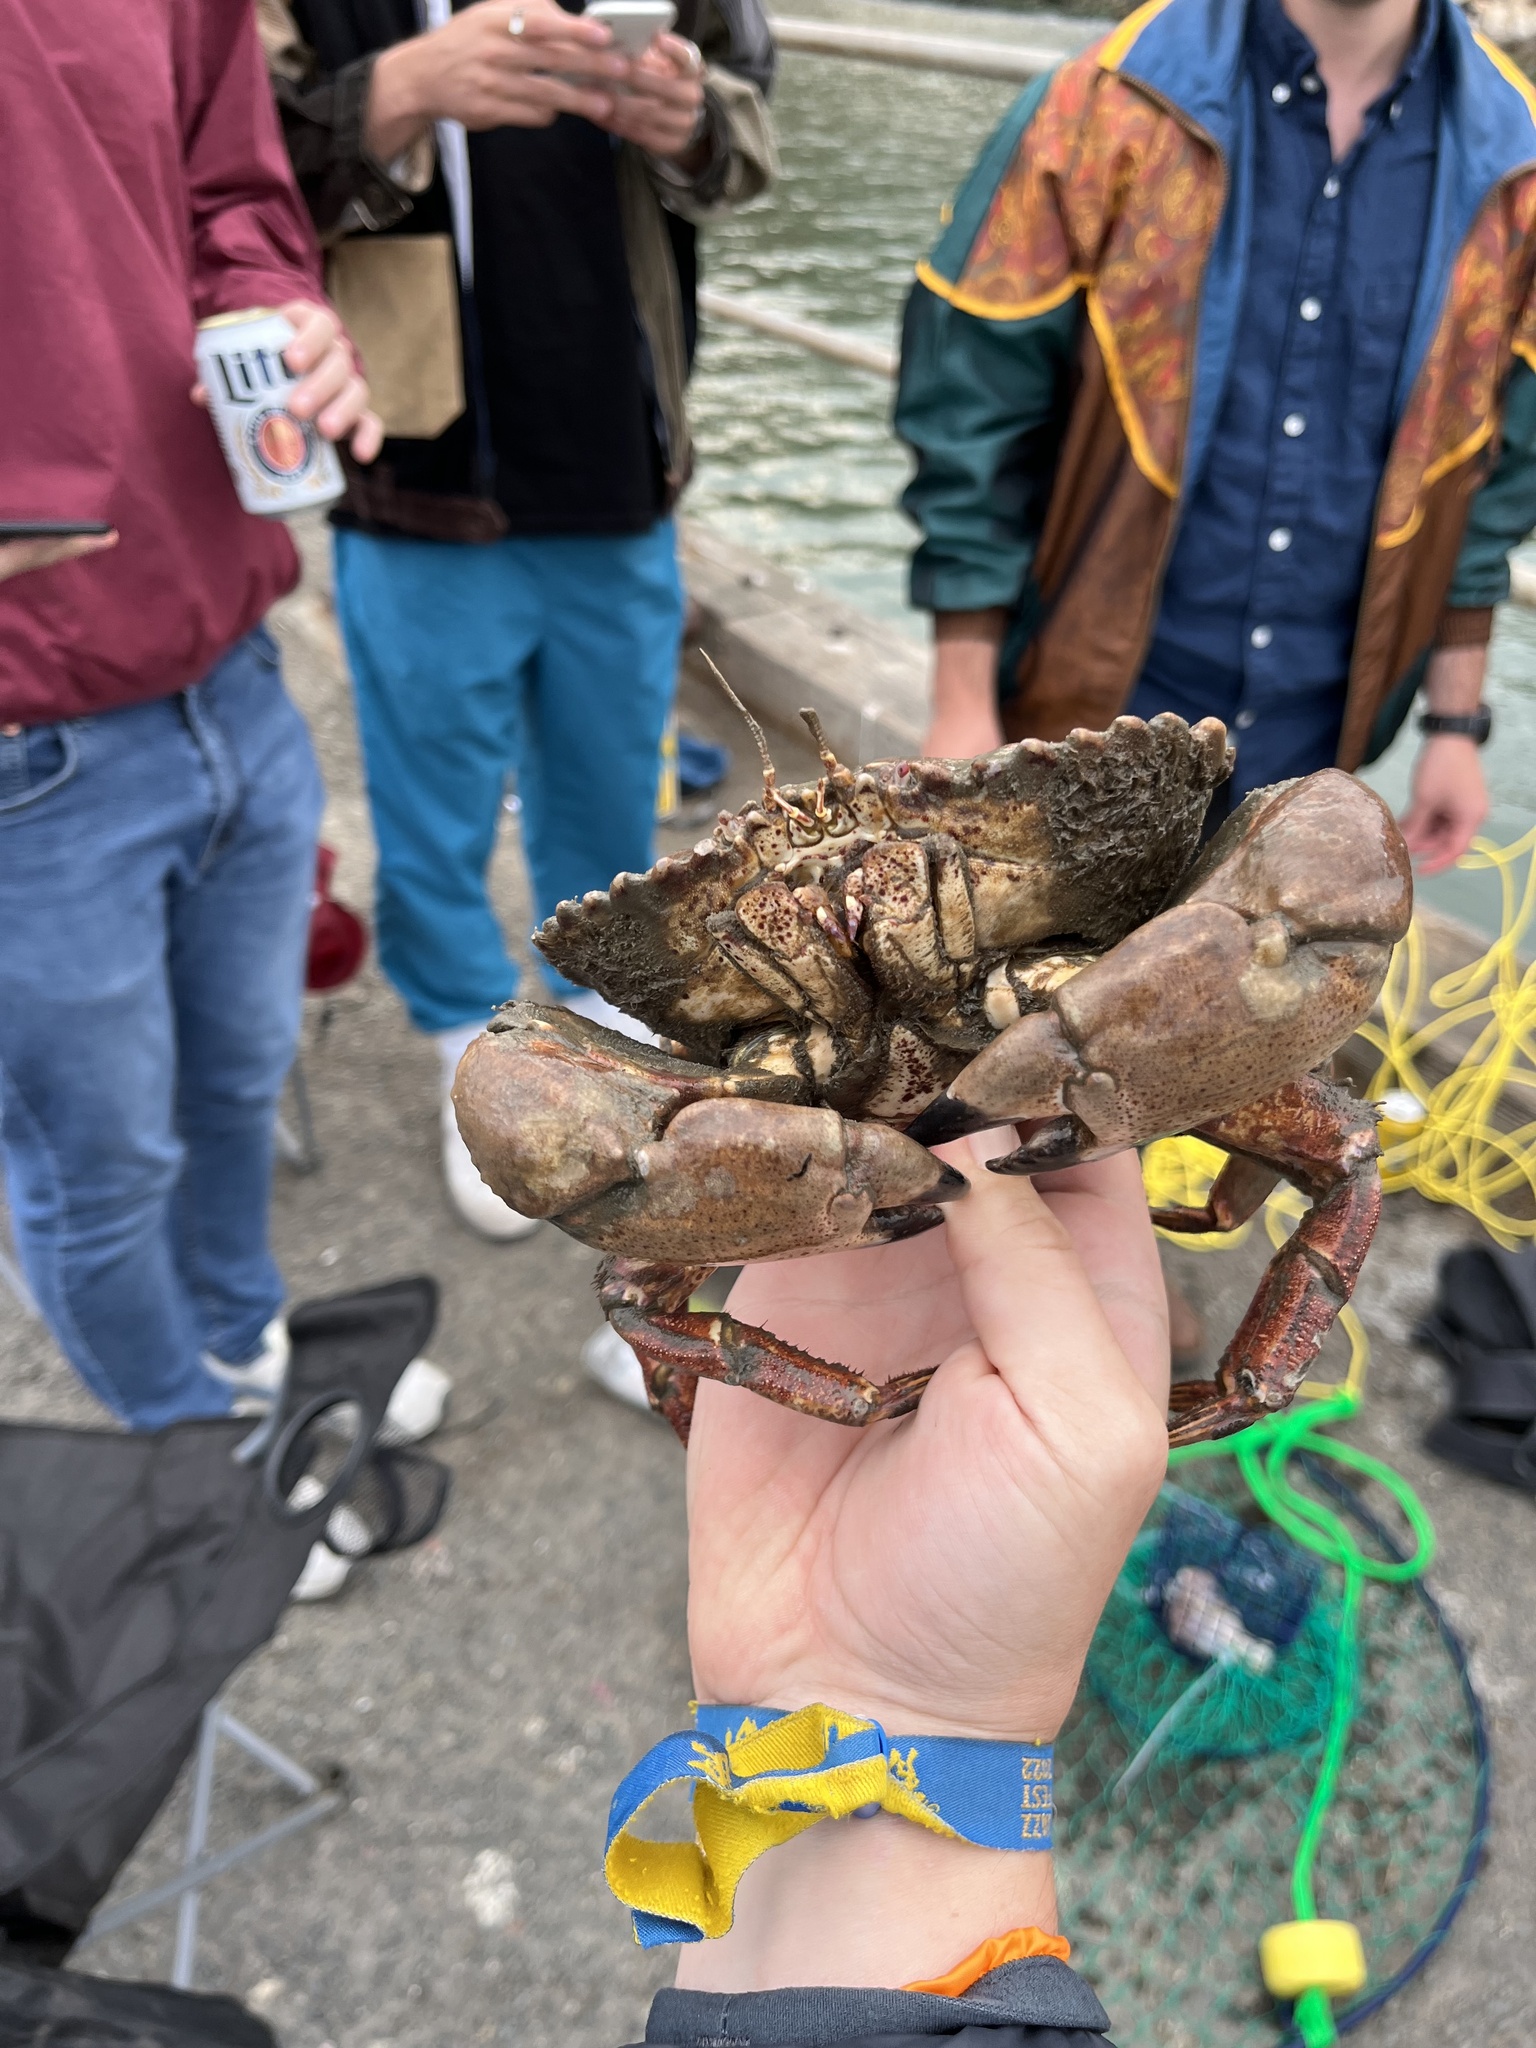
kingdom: Animalia
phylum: Arthropoda
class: Malacostraca
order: Decapoda
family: Cancridae
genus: Romaleon
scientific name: Romaleon antennarium
